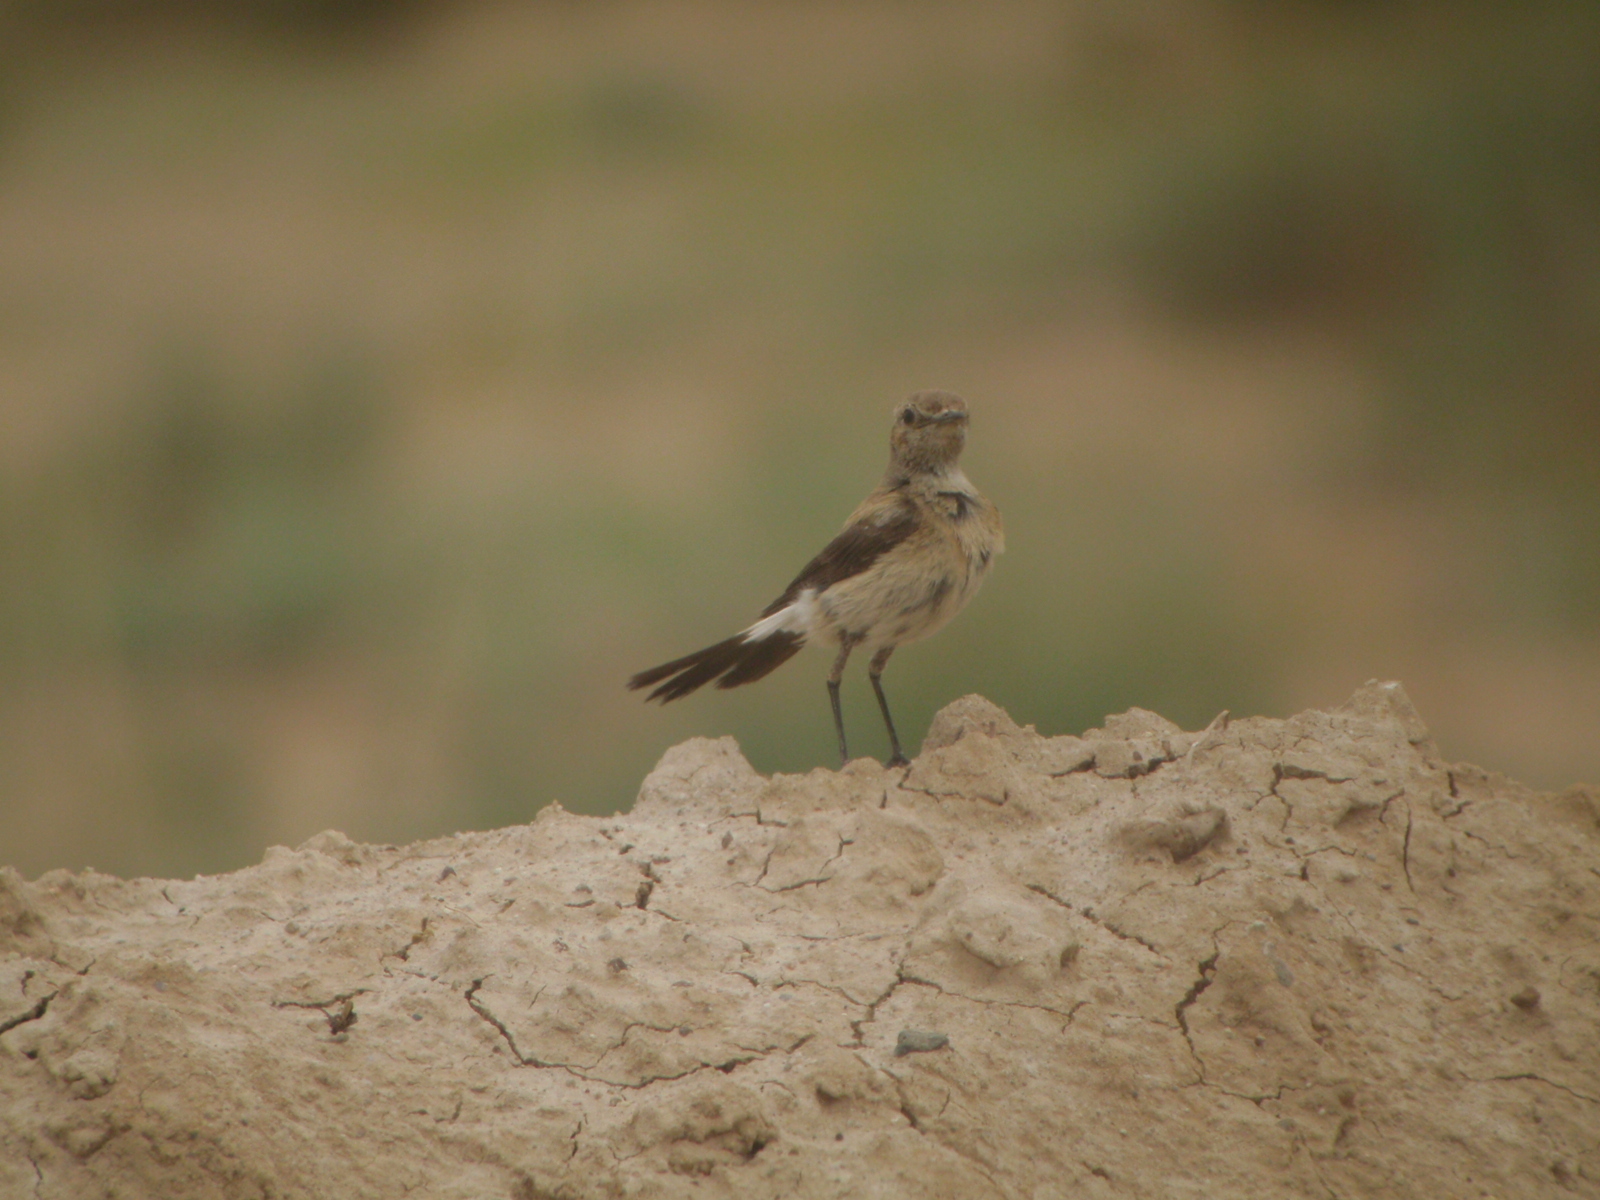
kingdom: Animalia
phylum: Chordata
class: Aves
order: Passeriformes
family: Muscicapidae
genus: Oenanthe
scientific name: Oenanthe deserti
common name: Desert wheatear
